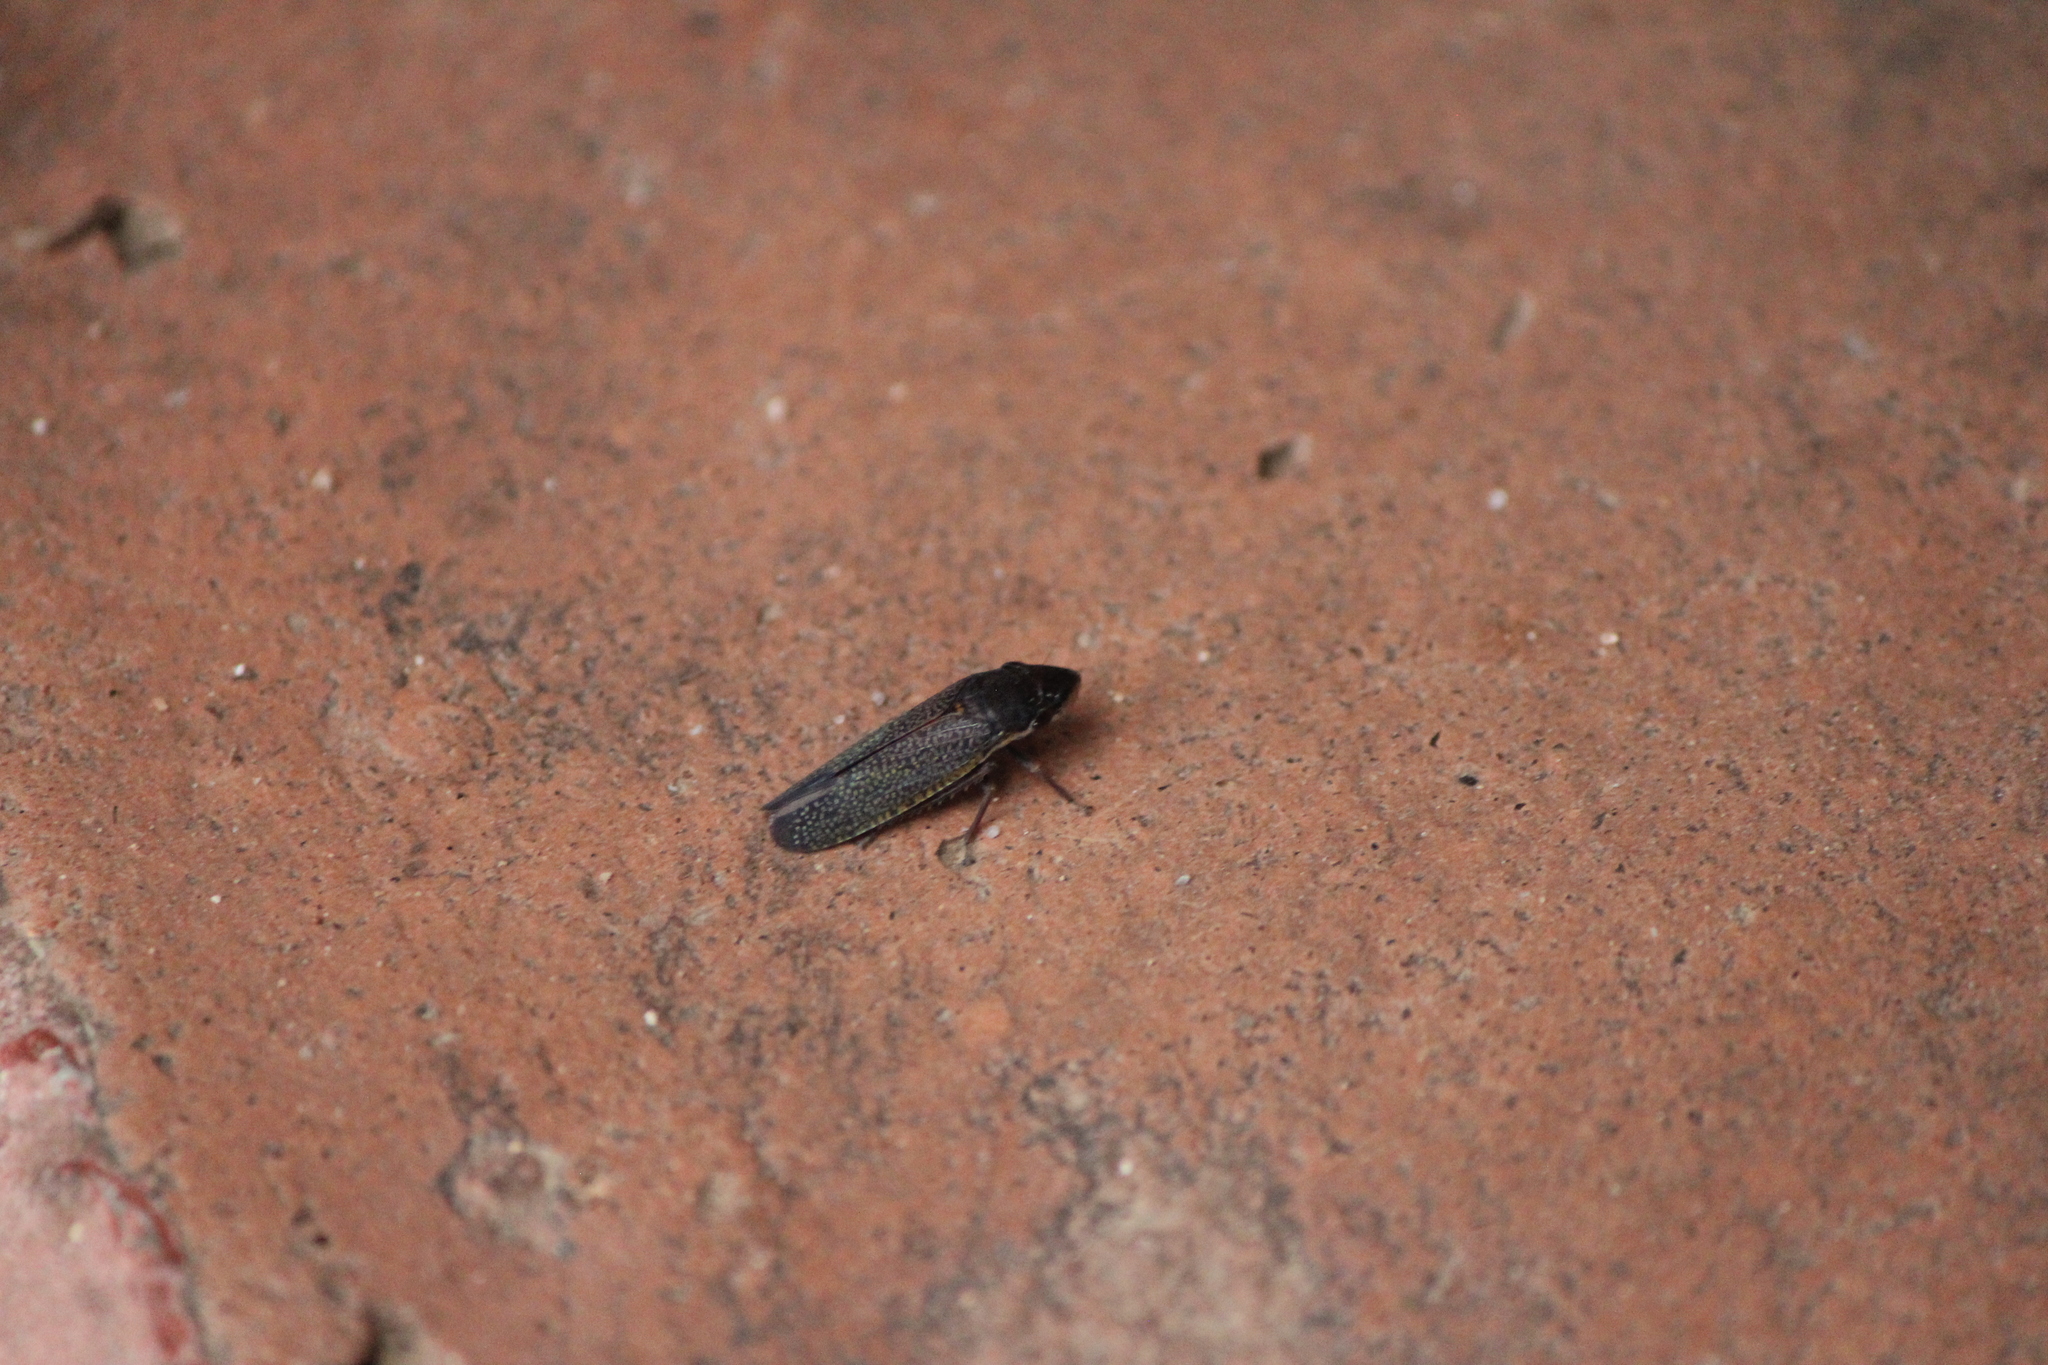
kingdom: Animalia
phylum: Arthropoda
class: Insecta
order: Hemiptera
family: Cicadellidae
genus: Paraulacizes
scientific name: Paraulacizes irrorata
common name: Speckled sharpshooter
